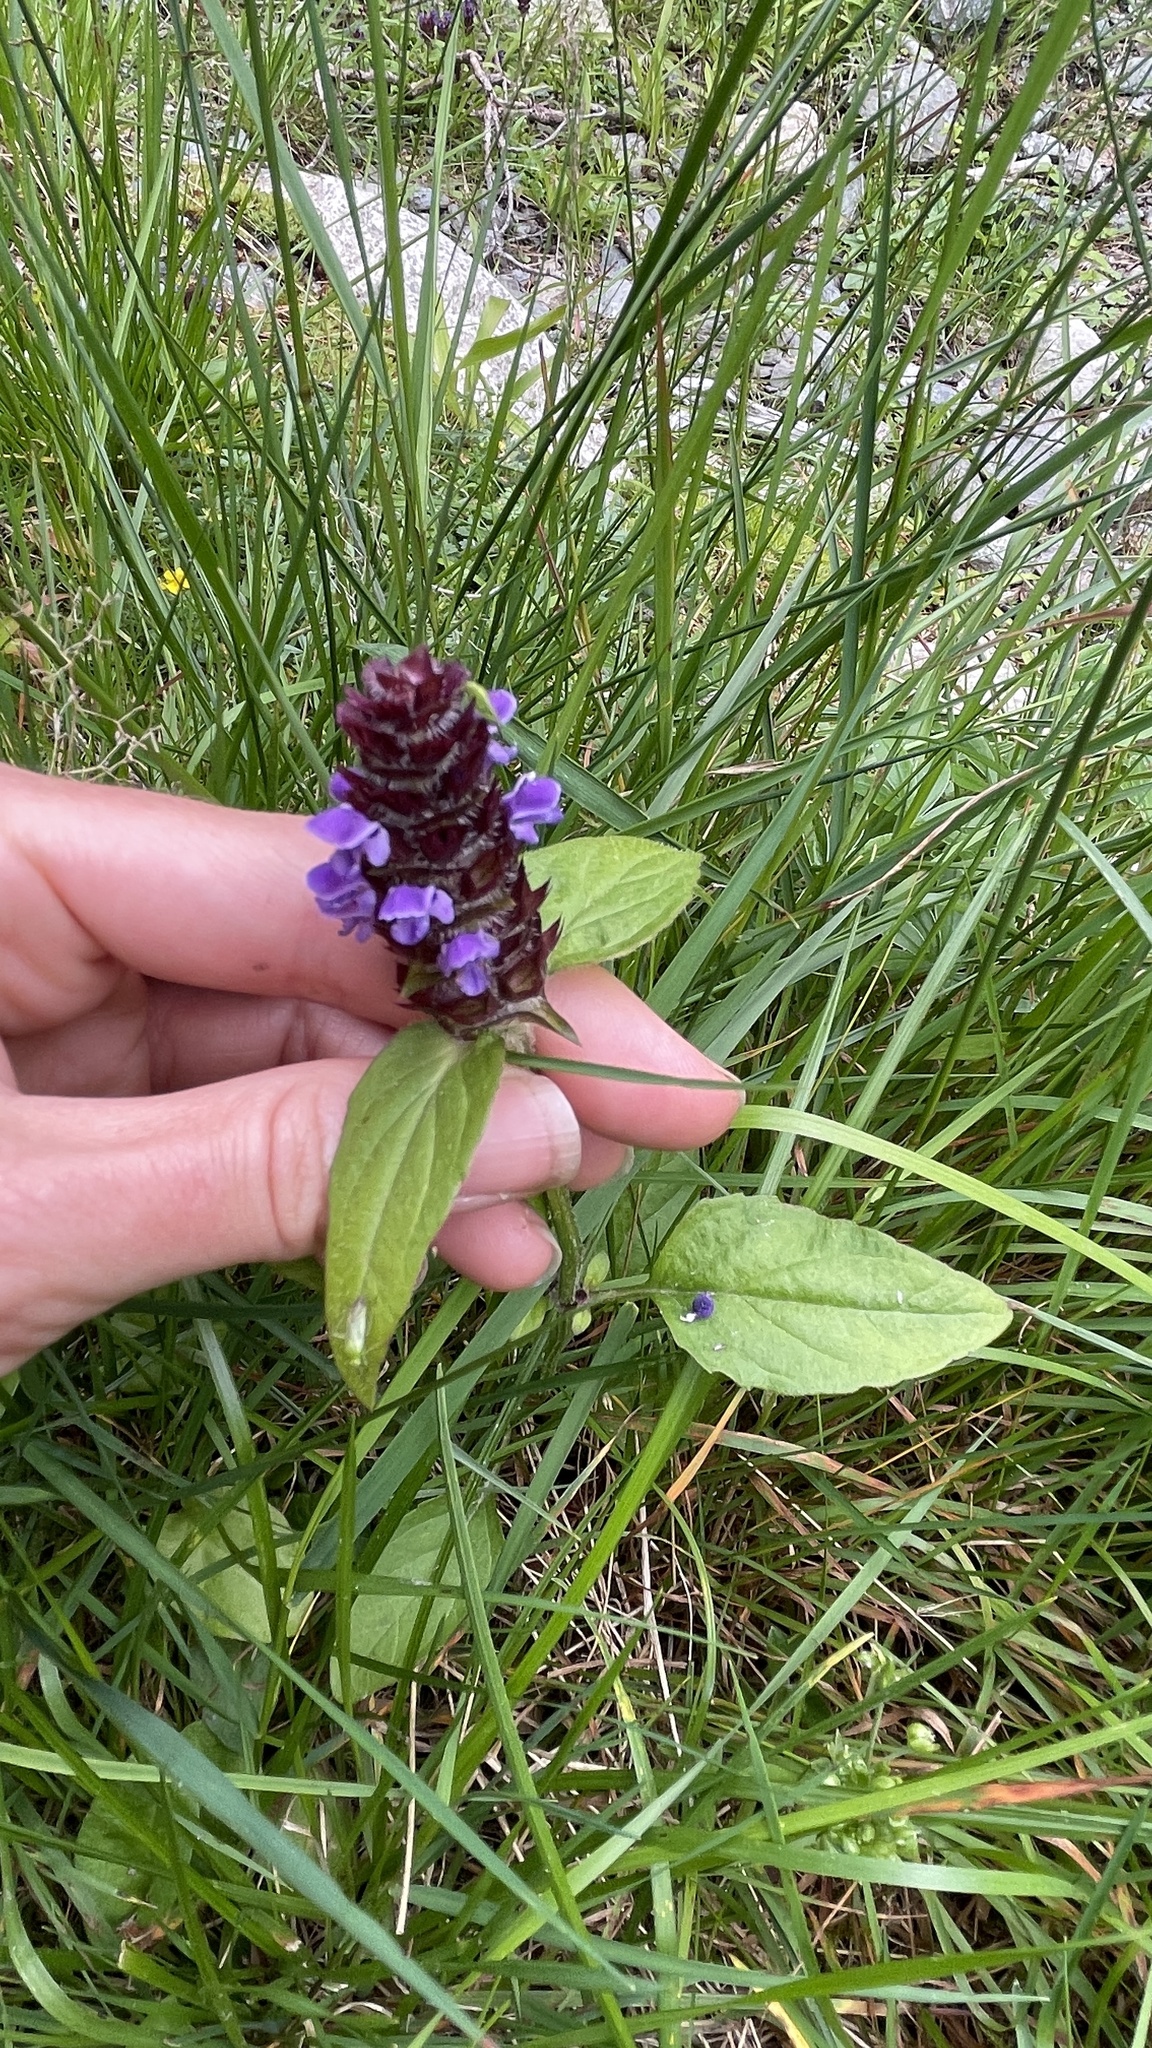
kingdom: Plantae
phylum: Tracheophyta
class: Magnoliopsida
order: Lamiales
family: Lamiaceae
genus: Prunella
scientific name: Prunella vulgaris
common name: Heal-all
